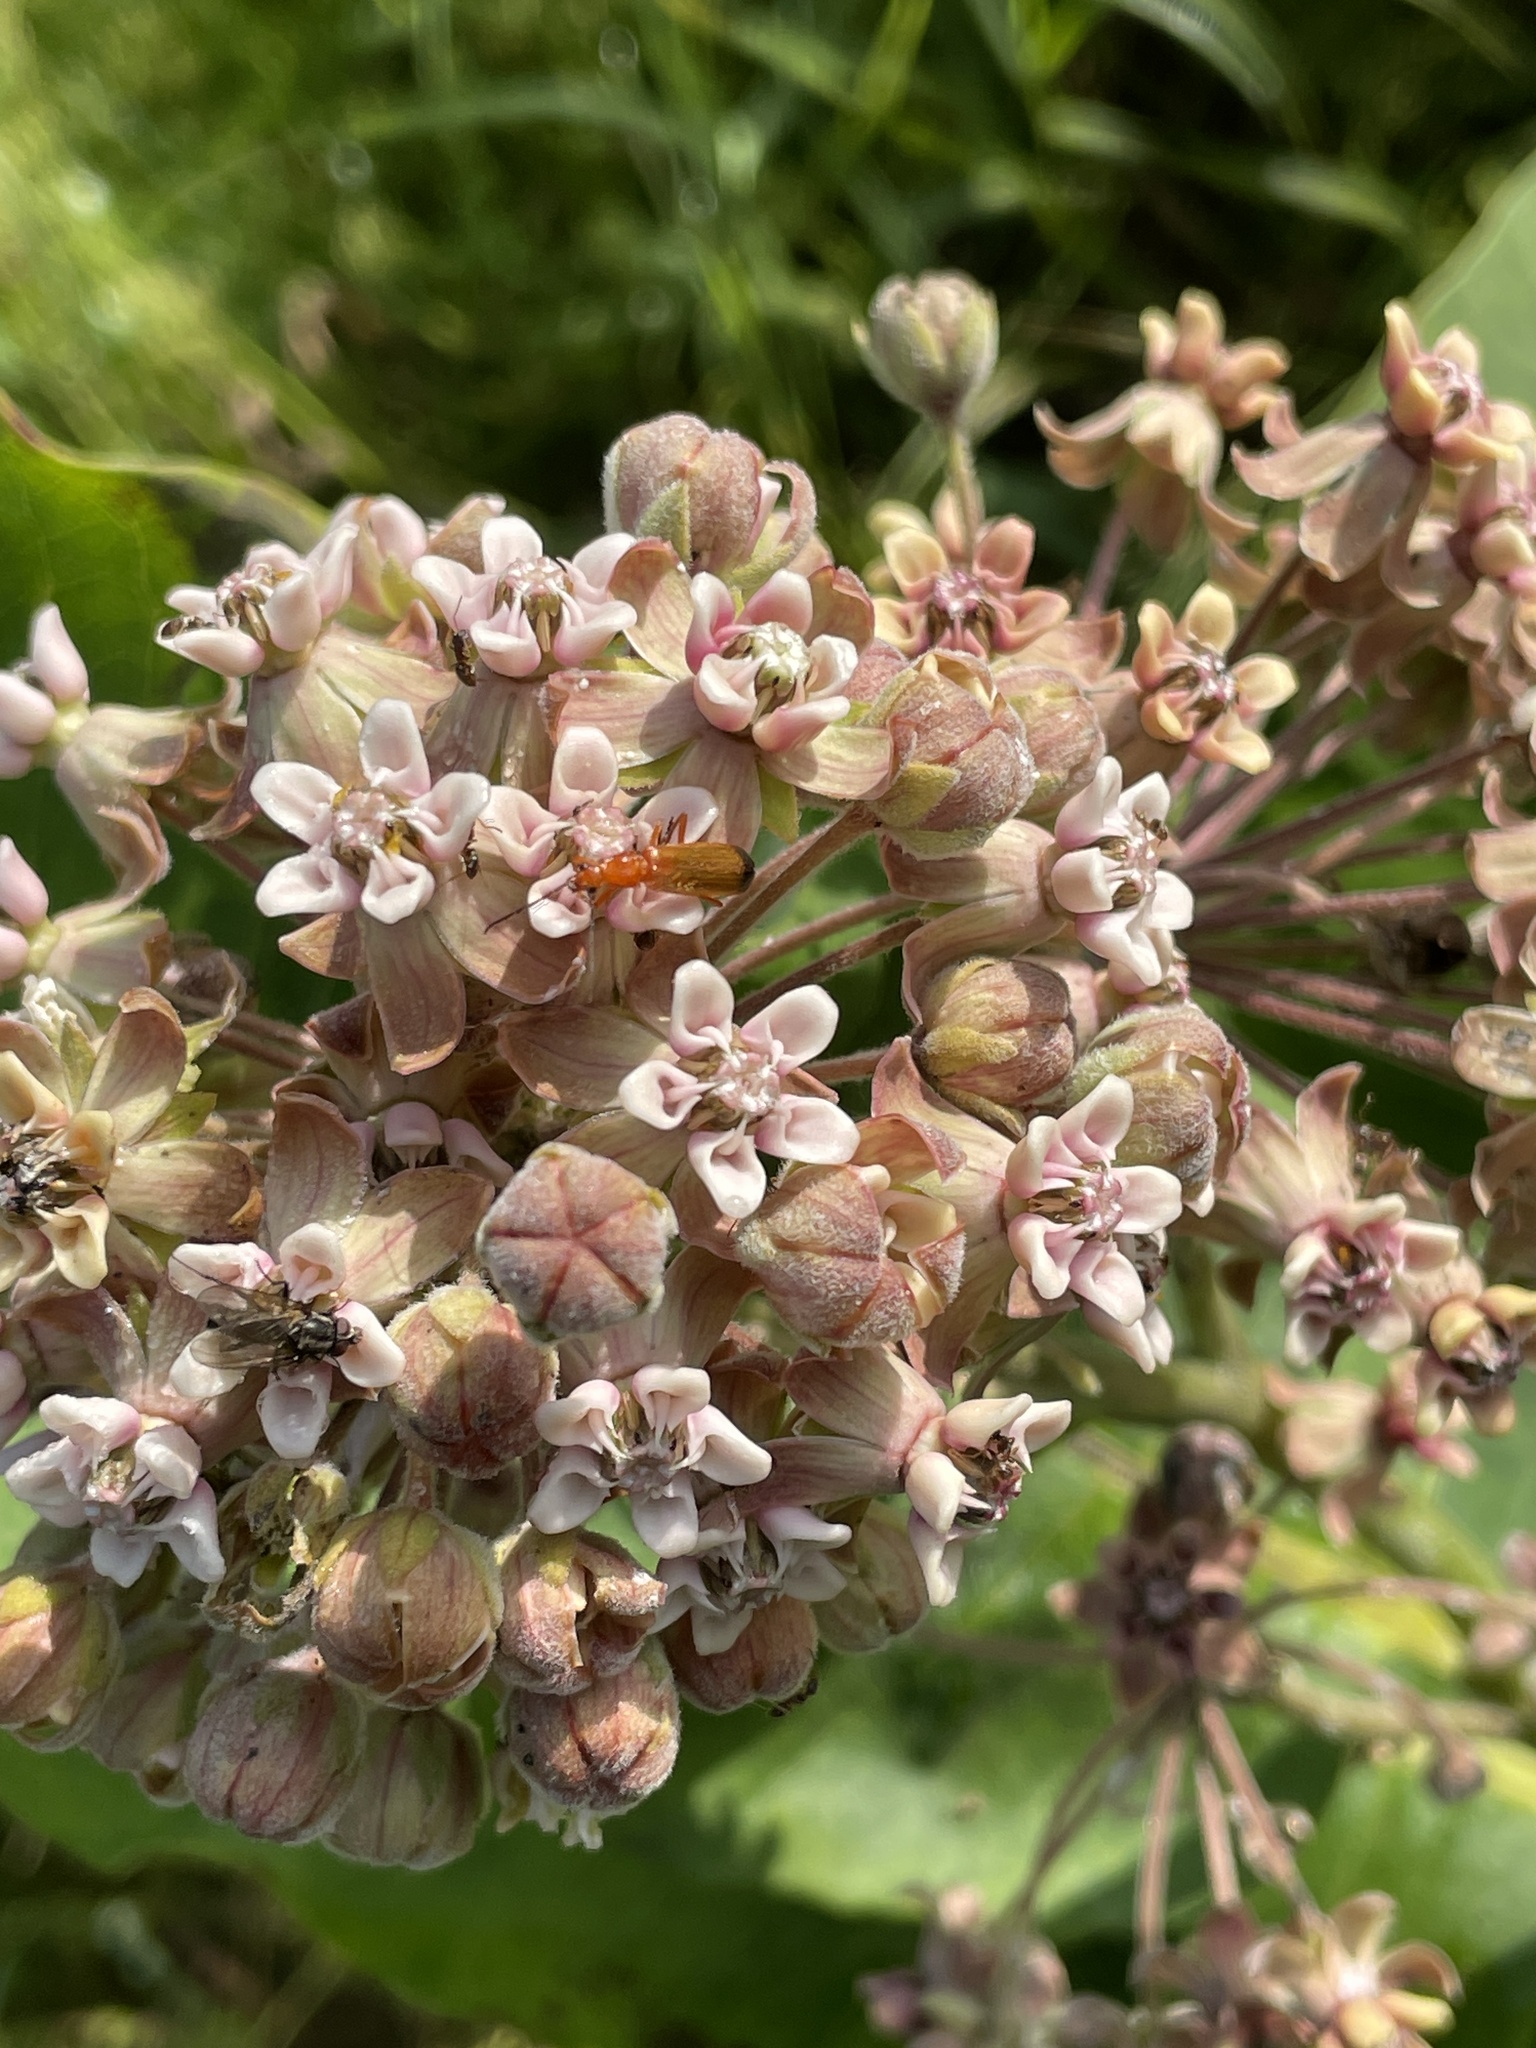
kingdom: Plantae
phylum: Tracheophyta
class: Magnoliopsida
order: Gentianales
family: Apocynaceae
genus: Asclepias
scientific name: Asclepias syriaca
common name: Common milkweed
